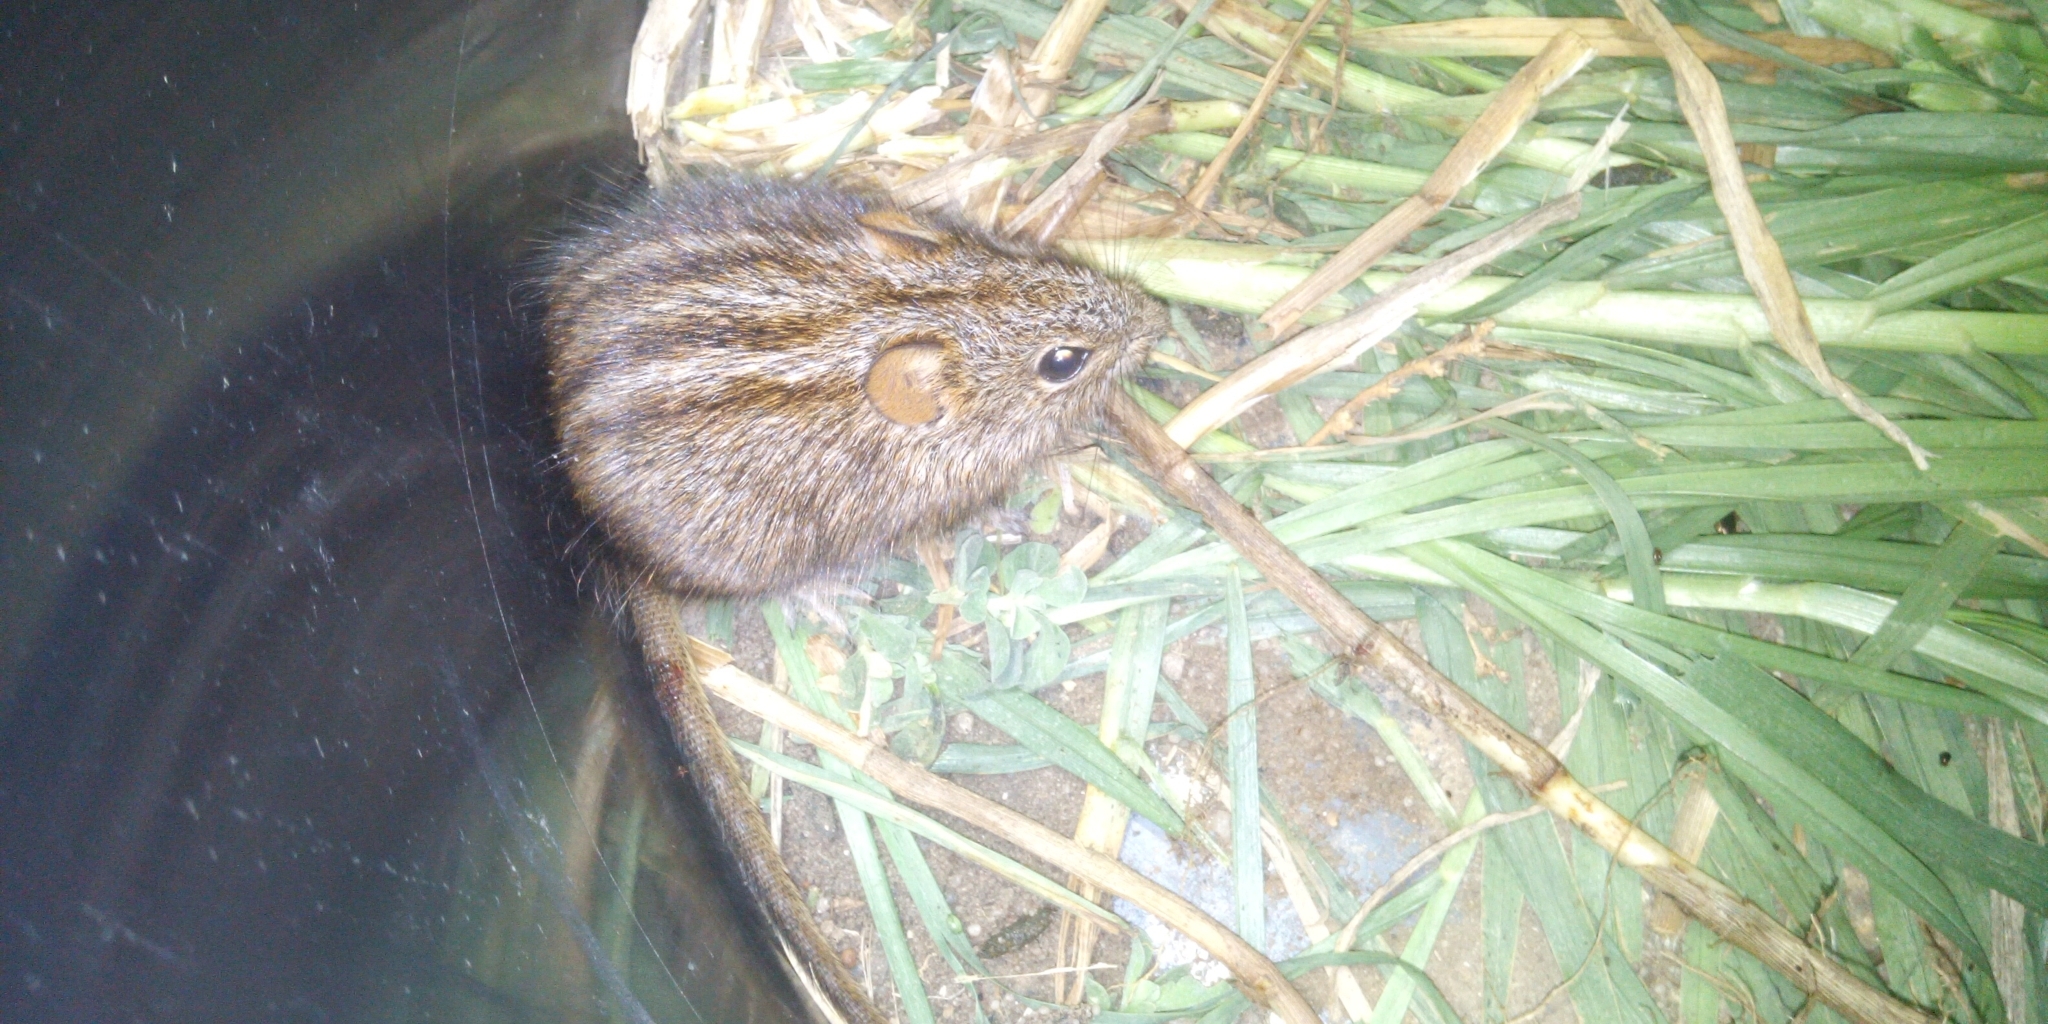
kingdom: Animalia
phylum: Chordata
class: Mammalia
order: Rodentia
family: Muridae
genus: Rhabdomys
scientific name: Rhabdomys pumilio
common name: Xeric four-striped grass rat
